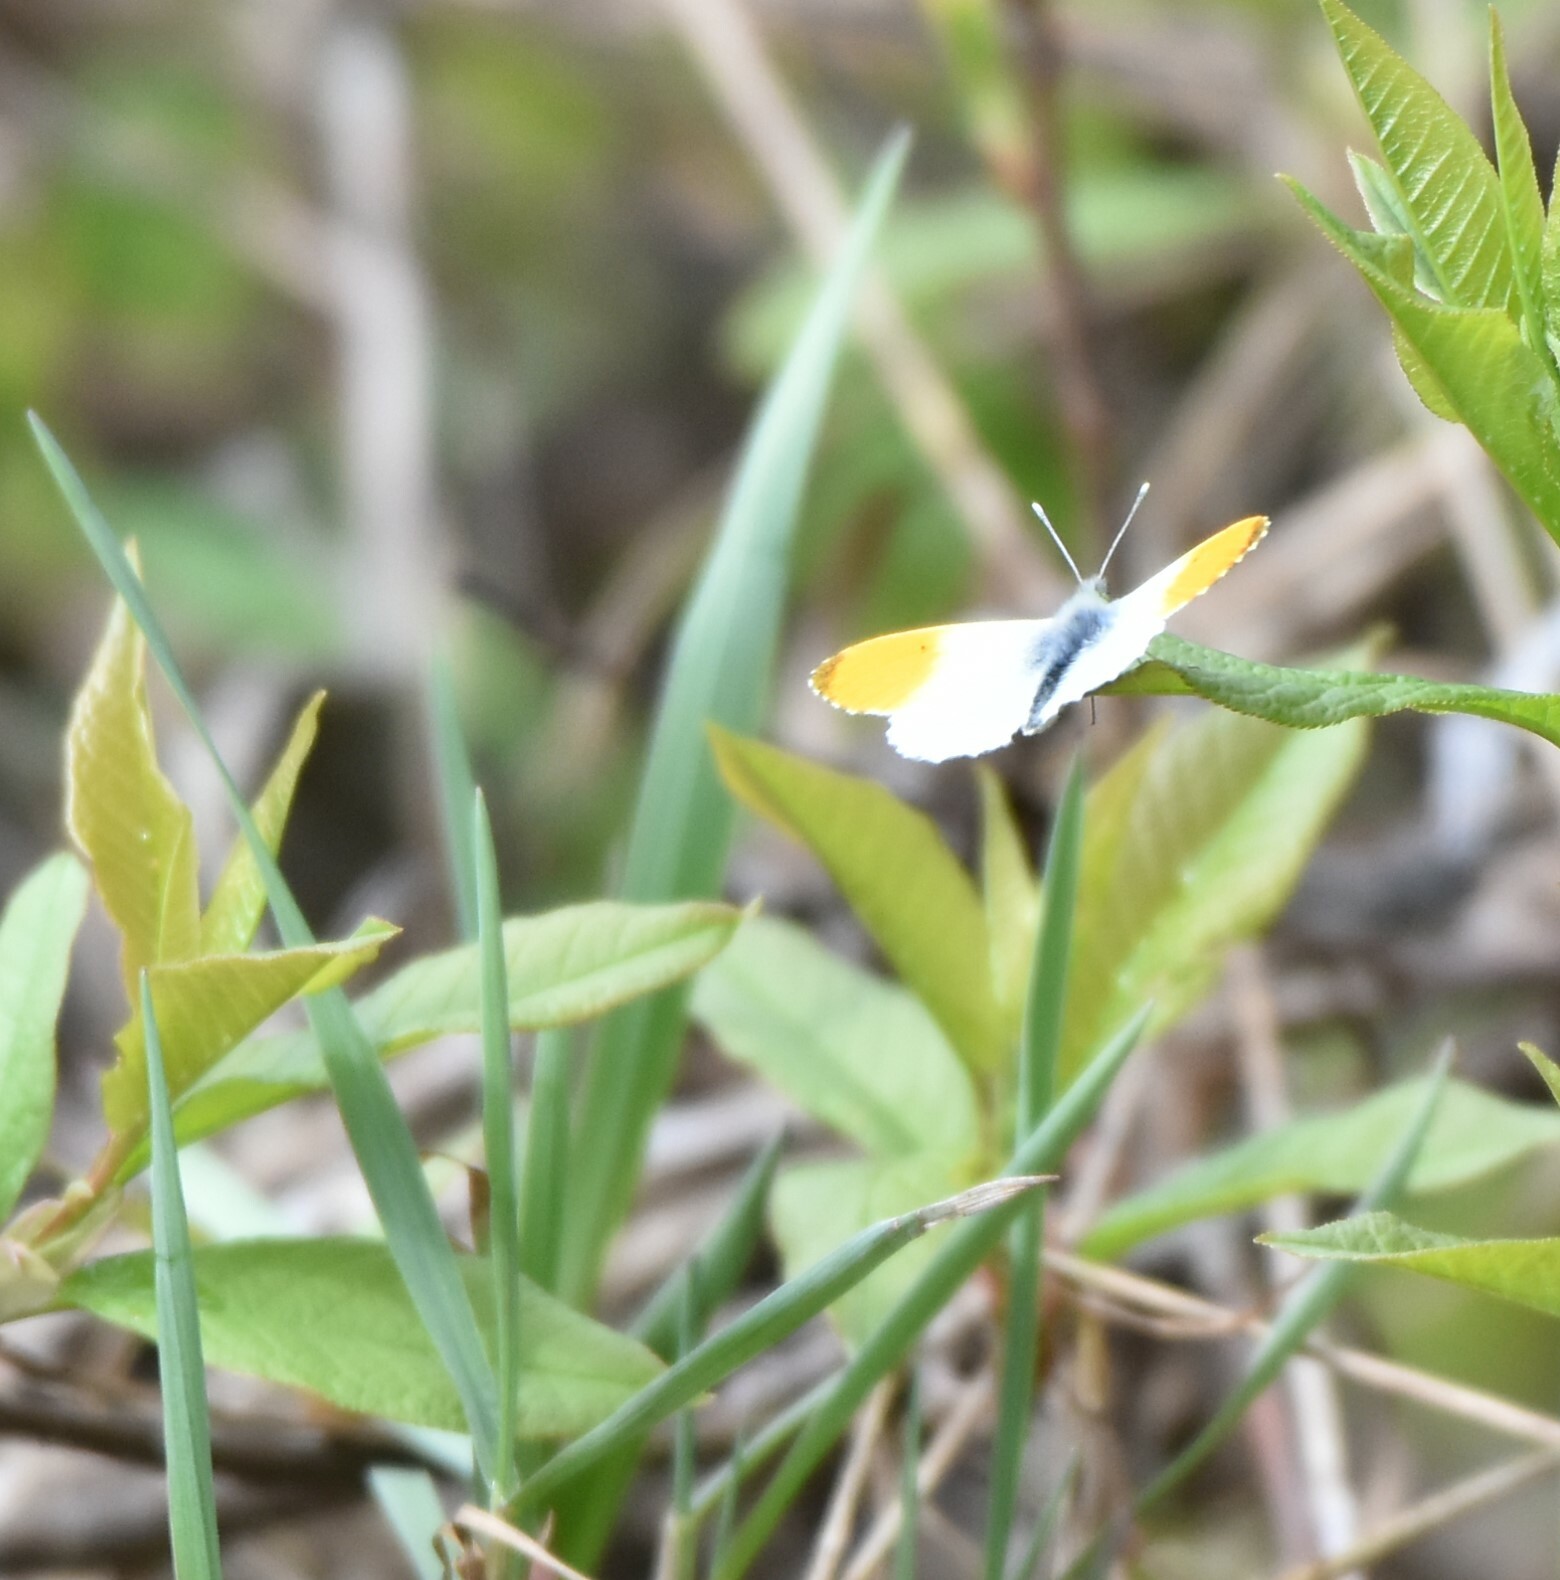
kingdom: Animalia
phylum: Arthropoda
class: Insecta
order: Lepidoptera
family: Pieridae
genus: Anthocharis
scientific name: Anthocharis cardamines
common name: Orange-tip
